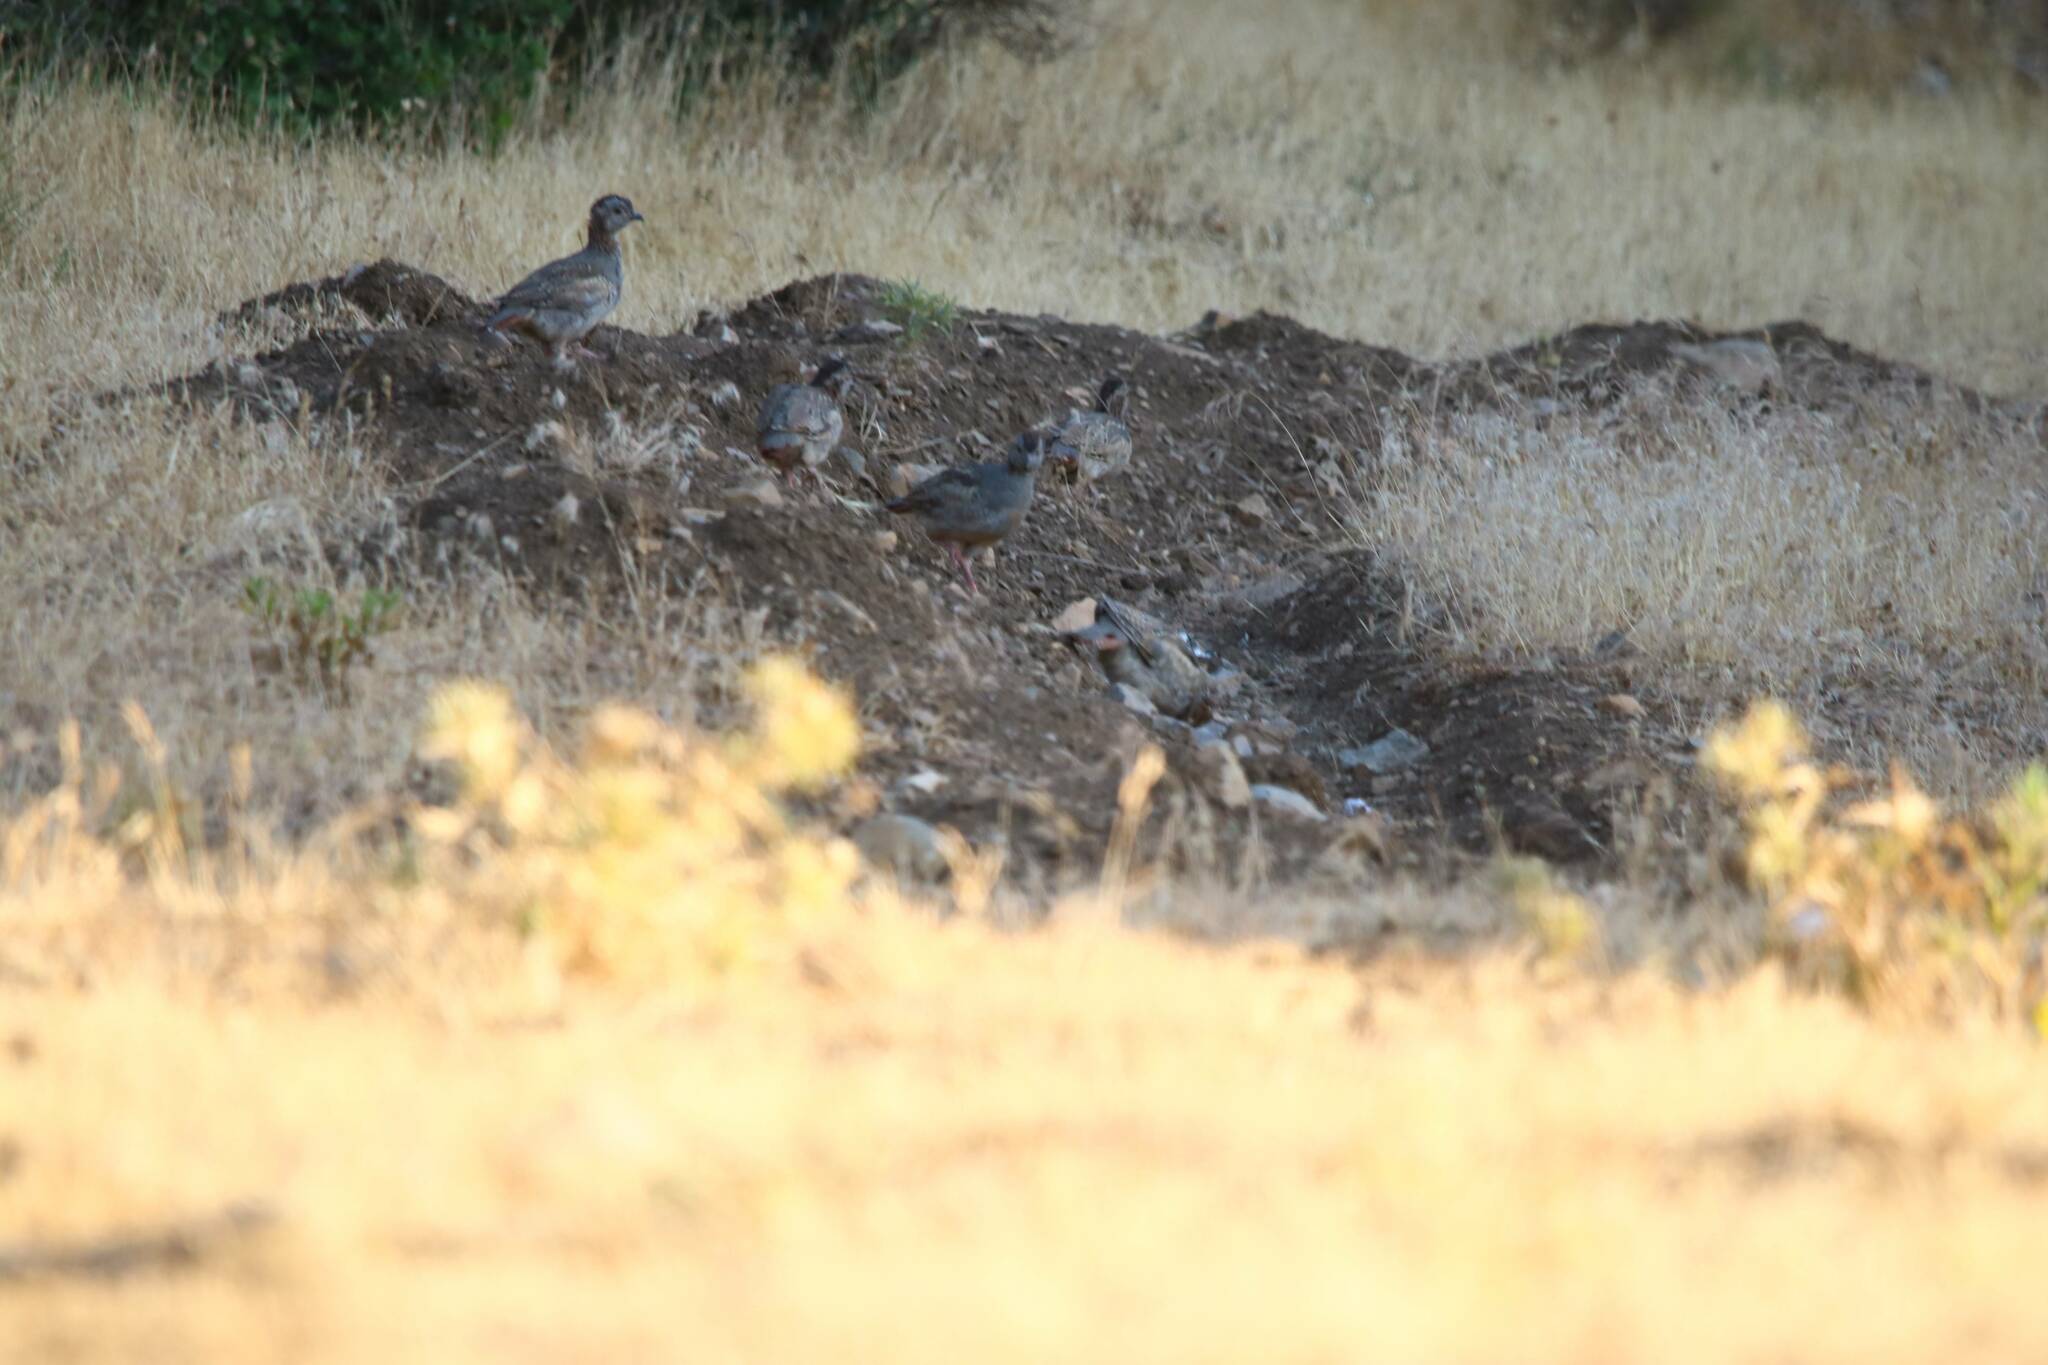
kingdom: Animalia
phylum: Chordata
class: Aves
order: Galliformes
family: Phasianidae
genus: Alectoris
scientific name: Alectoris barbara
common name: Barbary partridge
